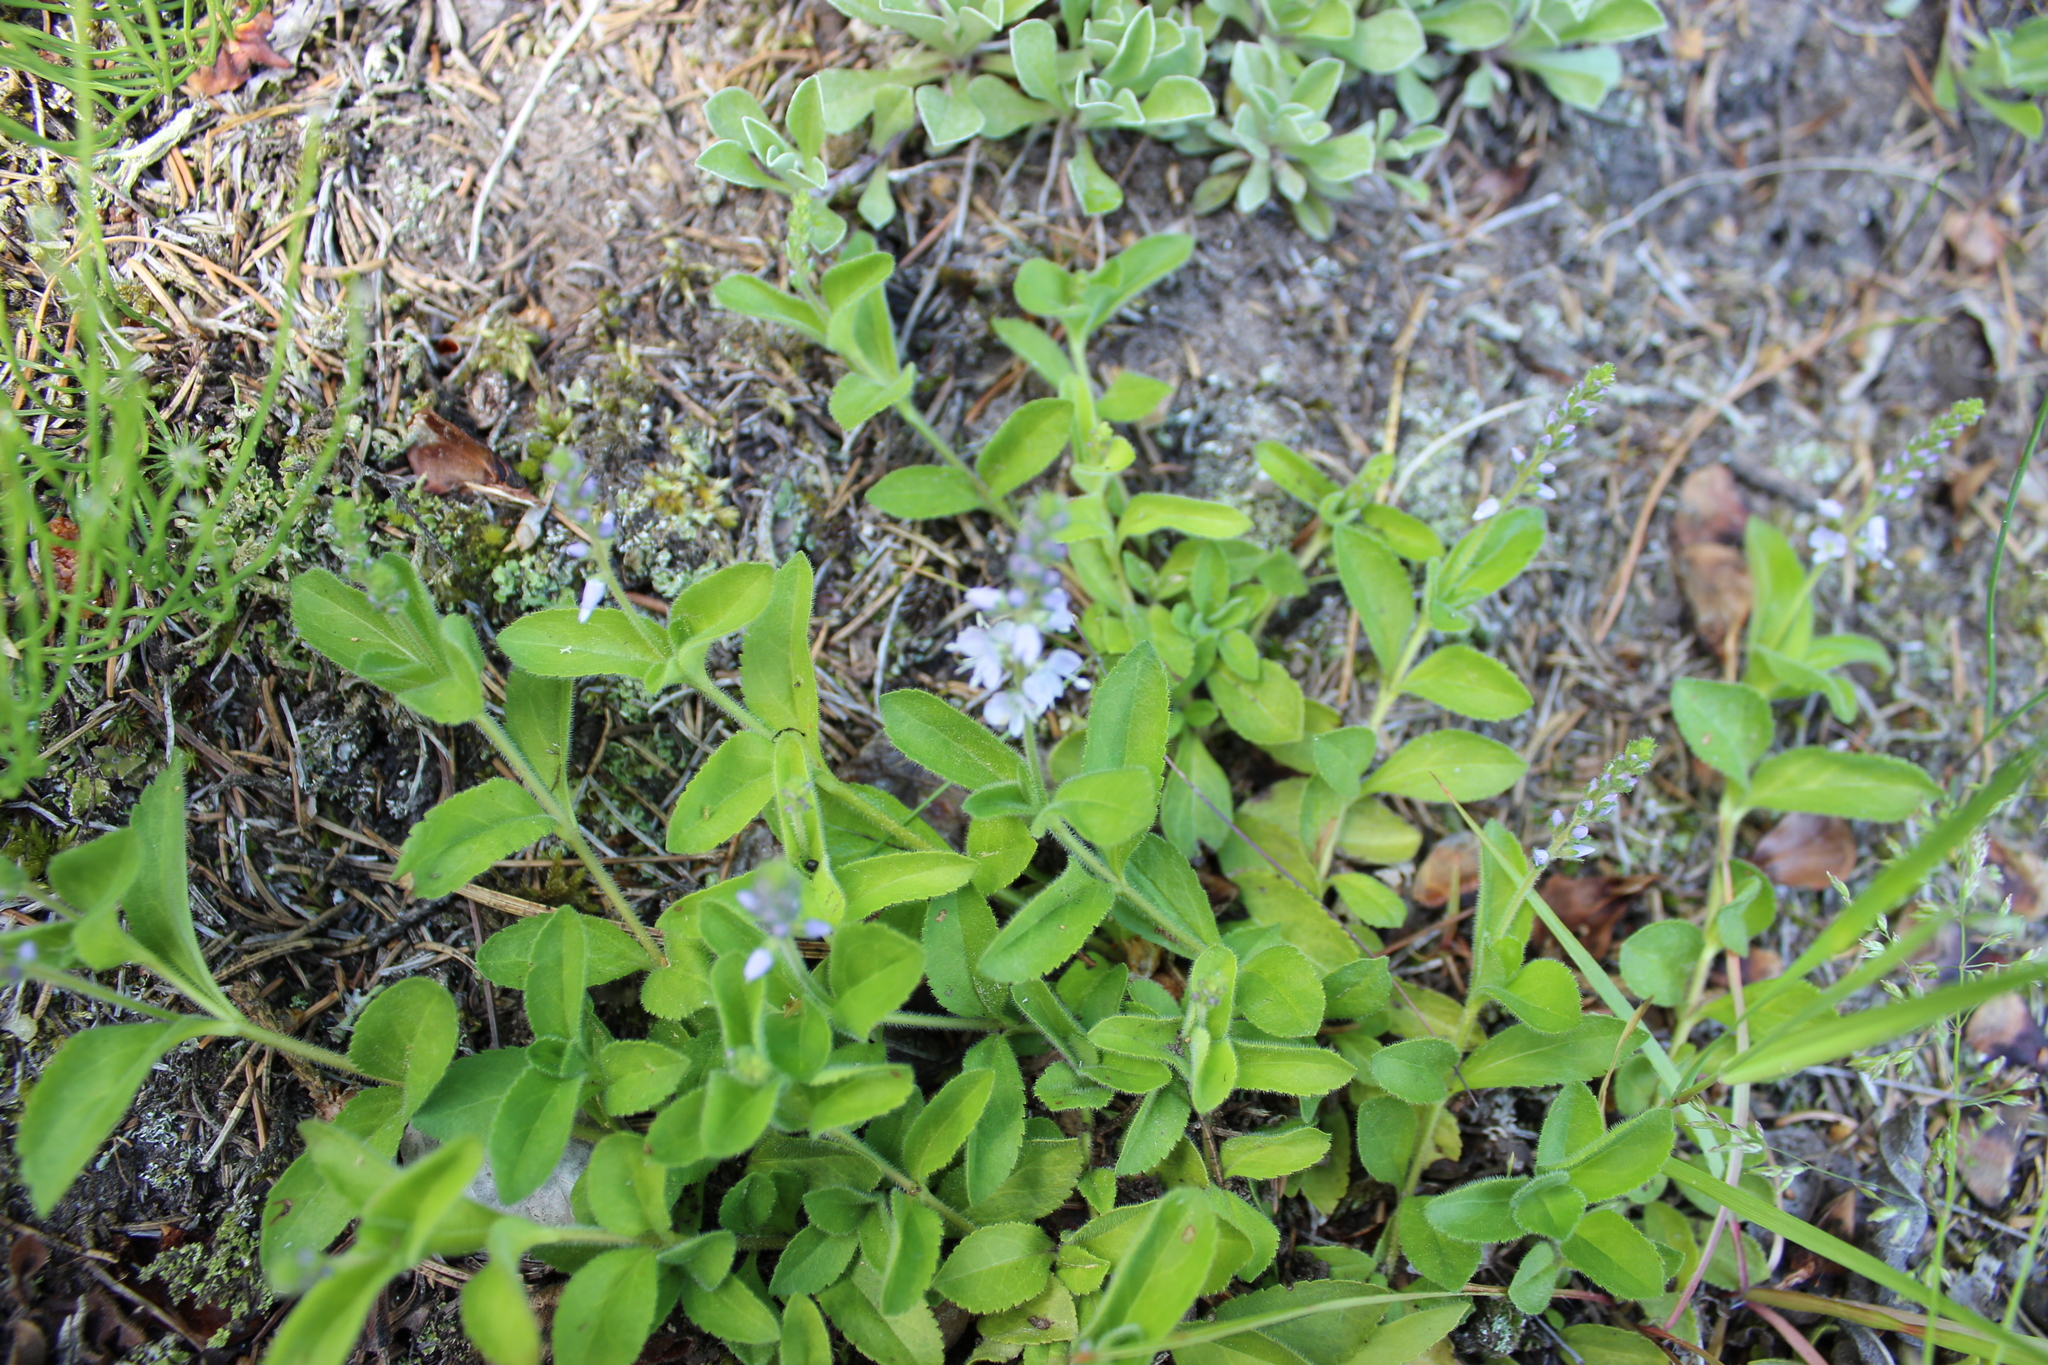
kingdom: Plantae
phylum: Tracheophyta
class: Magnoliopsida
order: Lamiales
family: Plantaginaceae
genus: Veronica
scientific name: Veronica officinalis
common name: Common speedwell
